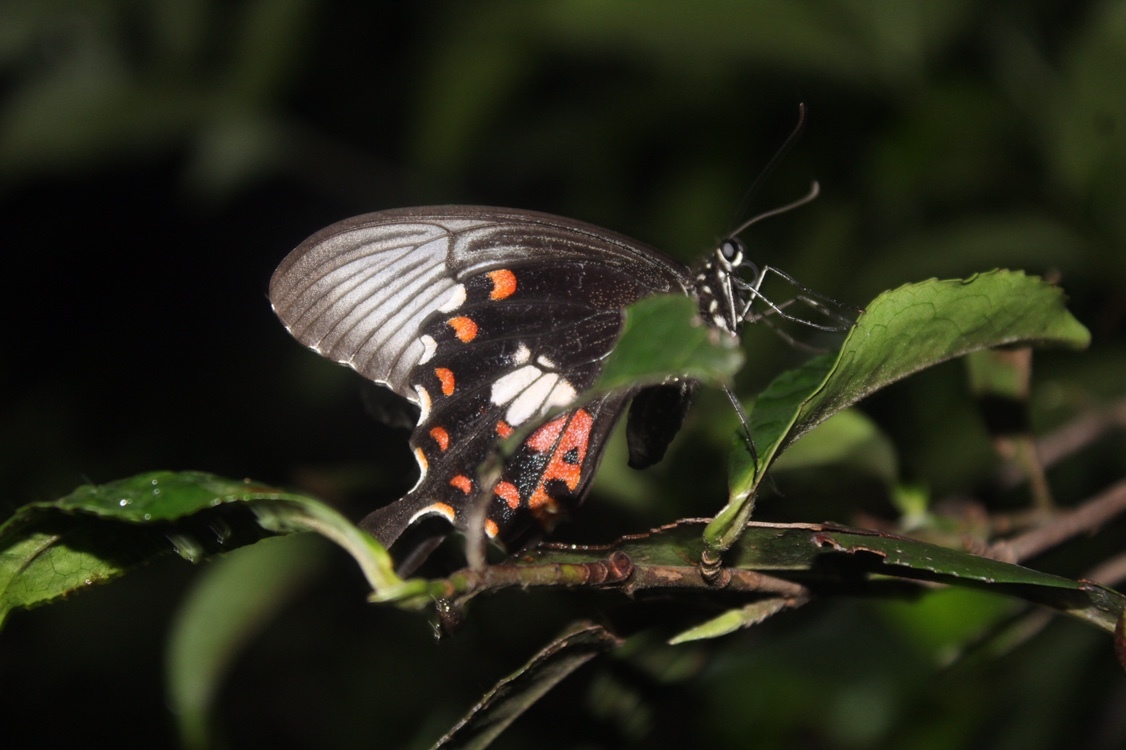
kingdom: Animalia
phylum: Arthropoda
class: Insecta
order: Lepidoptera
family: Papilionidae
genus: Papilio
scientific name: Papilio polytes
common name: Common mormon
